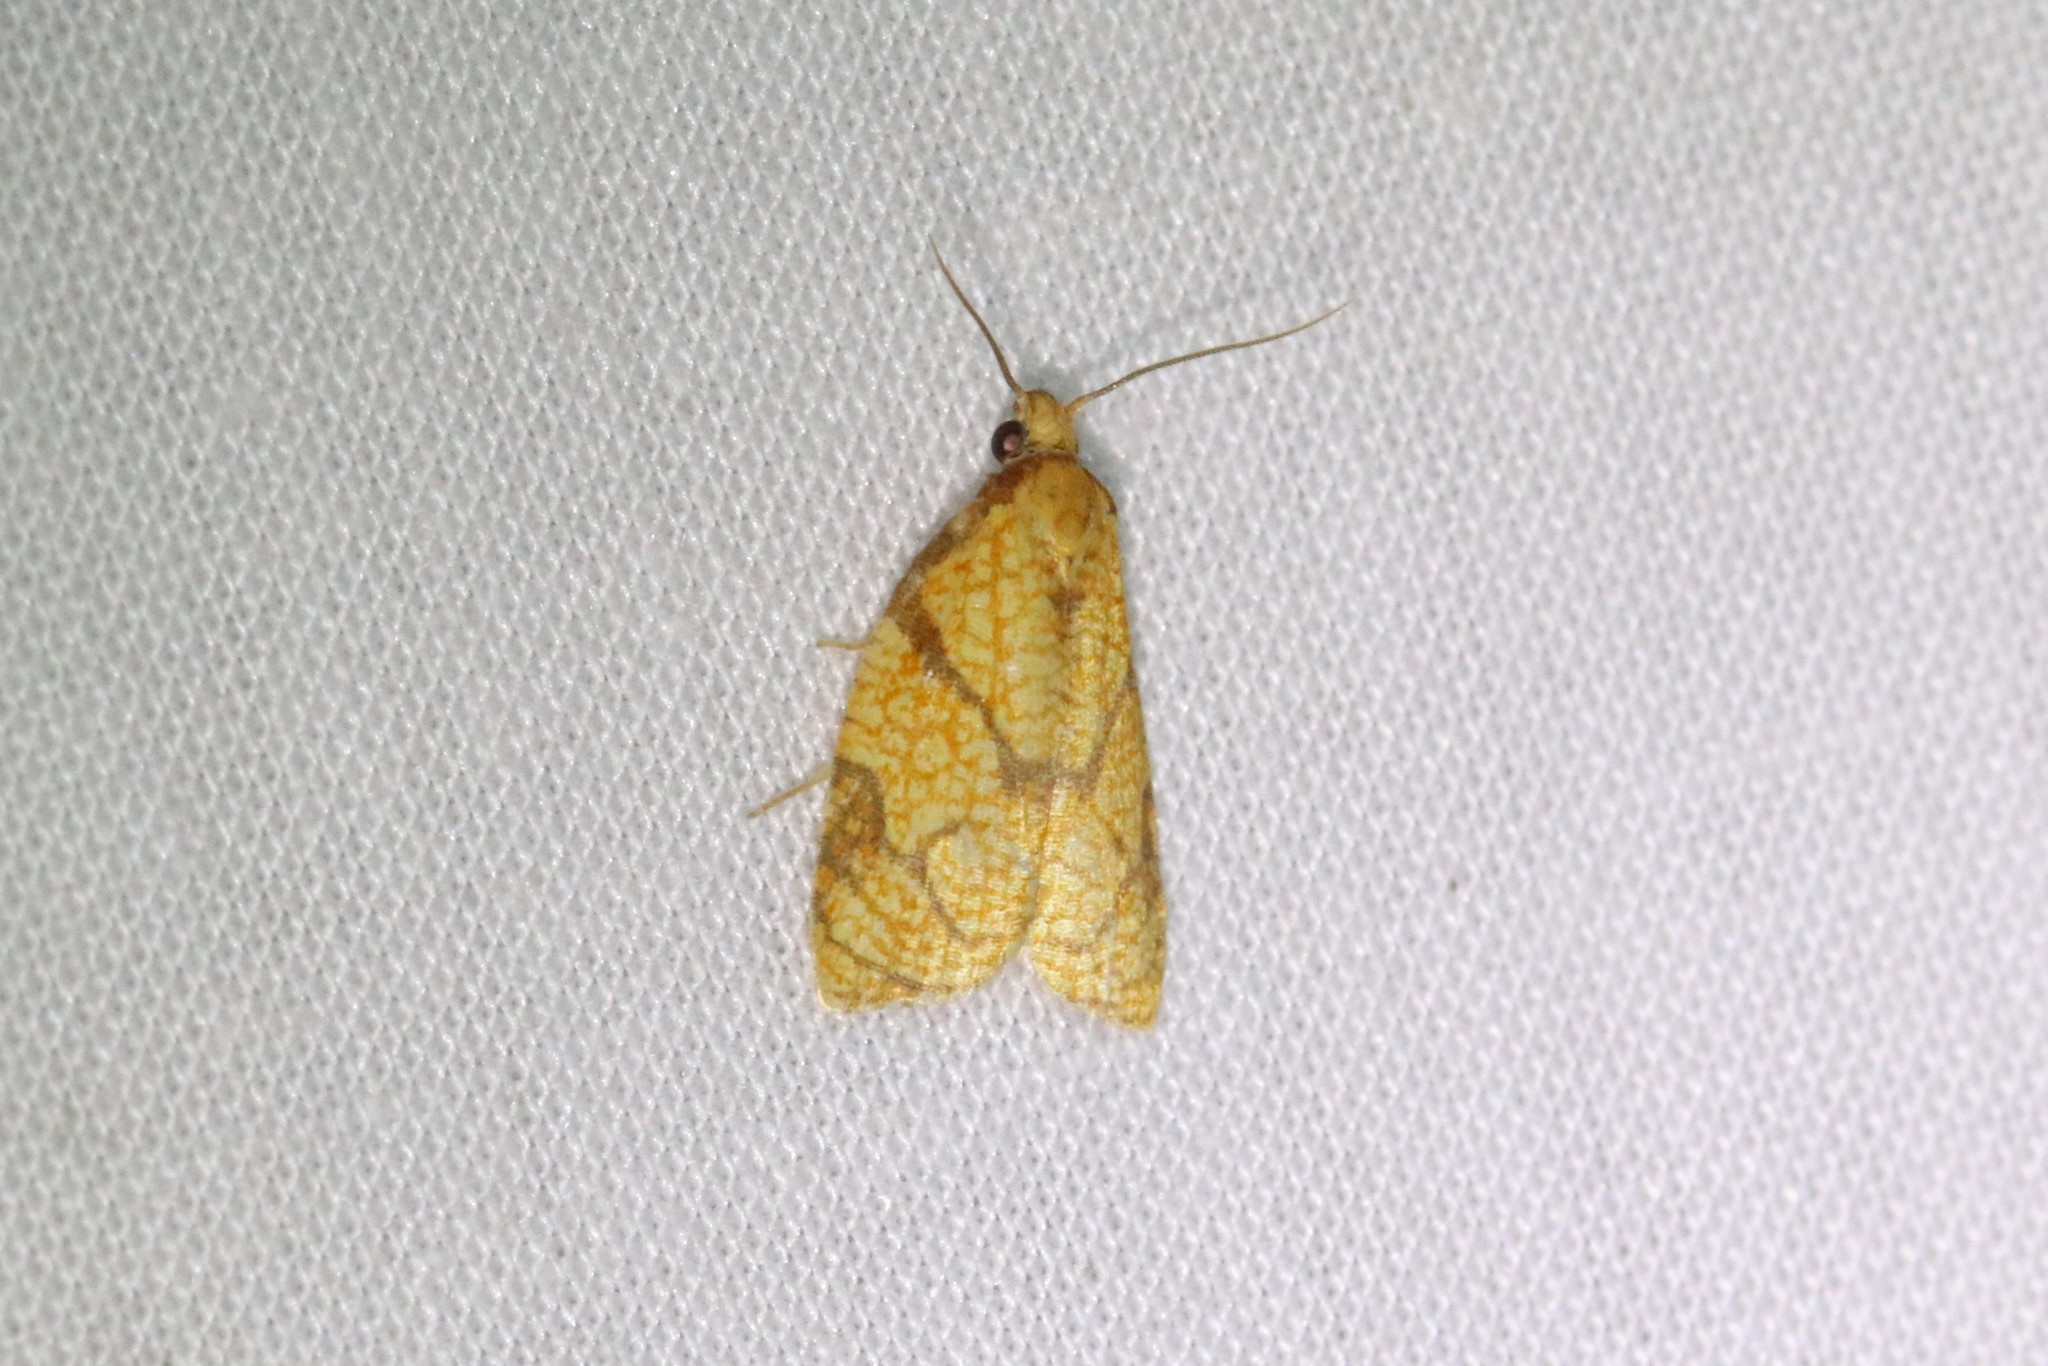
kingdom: Animalia
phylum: Arthropoda
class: Insecta
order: Lepidoptera
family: Tortricidae
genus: Cenopis
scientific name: Cenopis reticulatana
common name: Reticulated fruitworm moth
